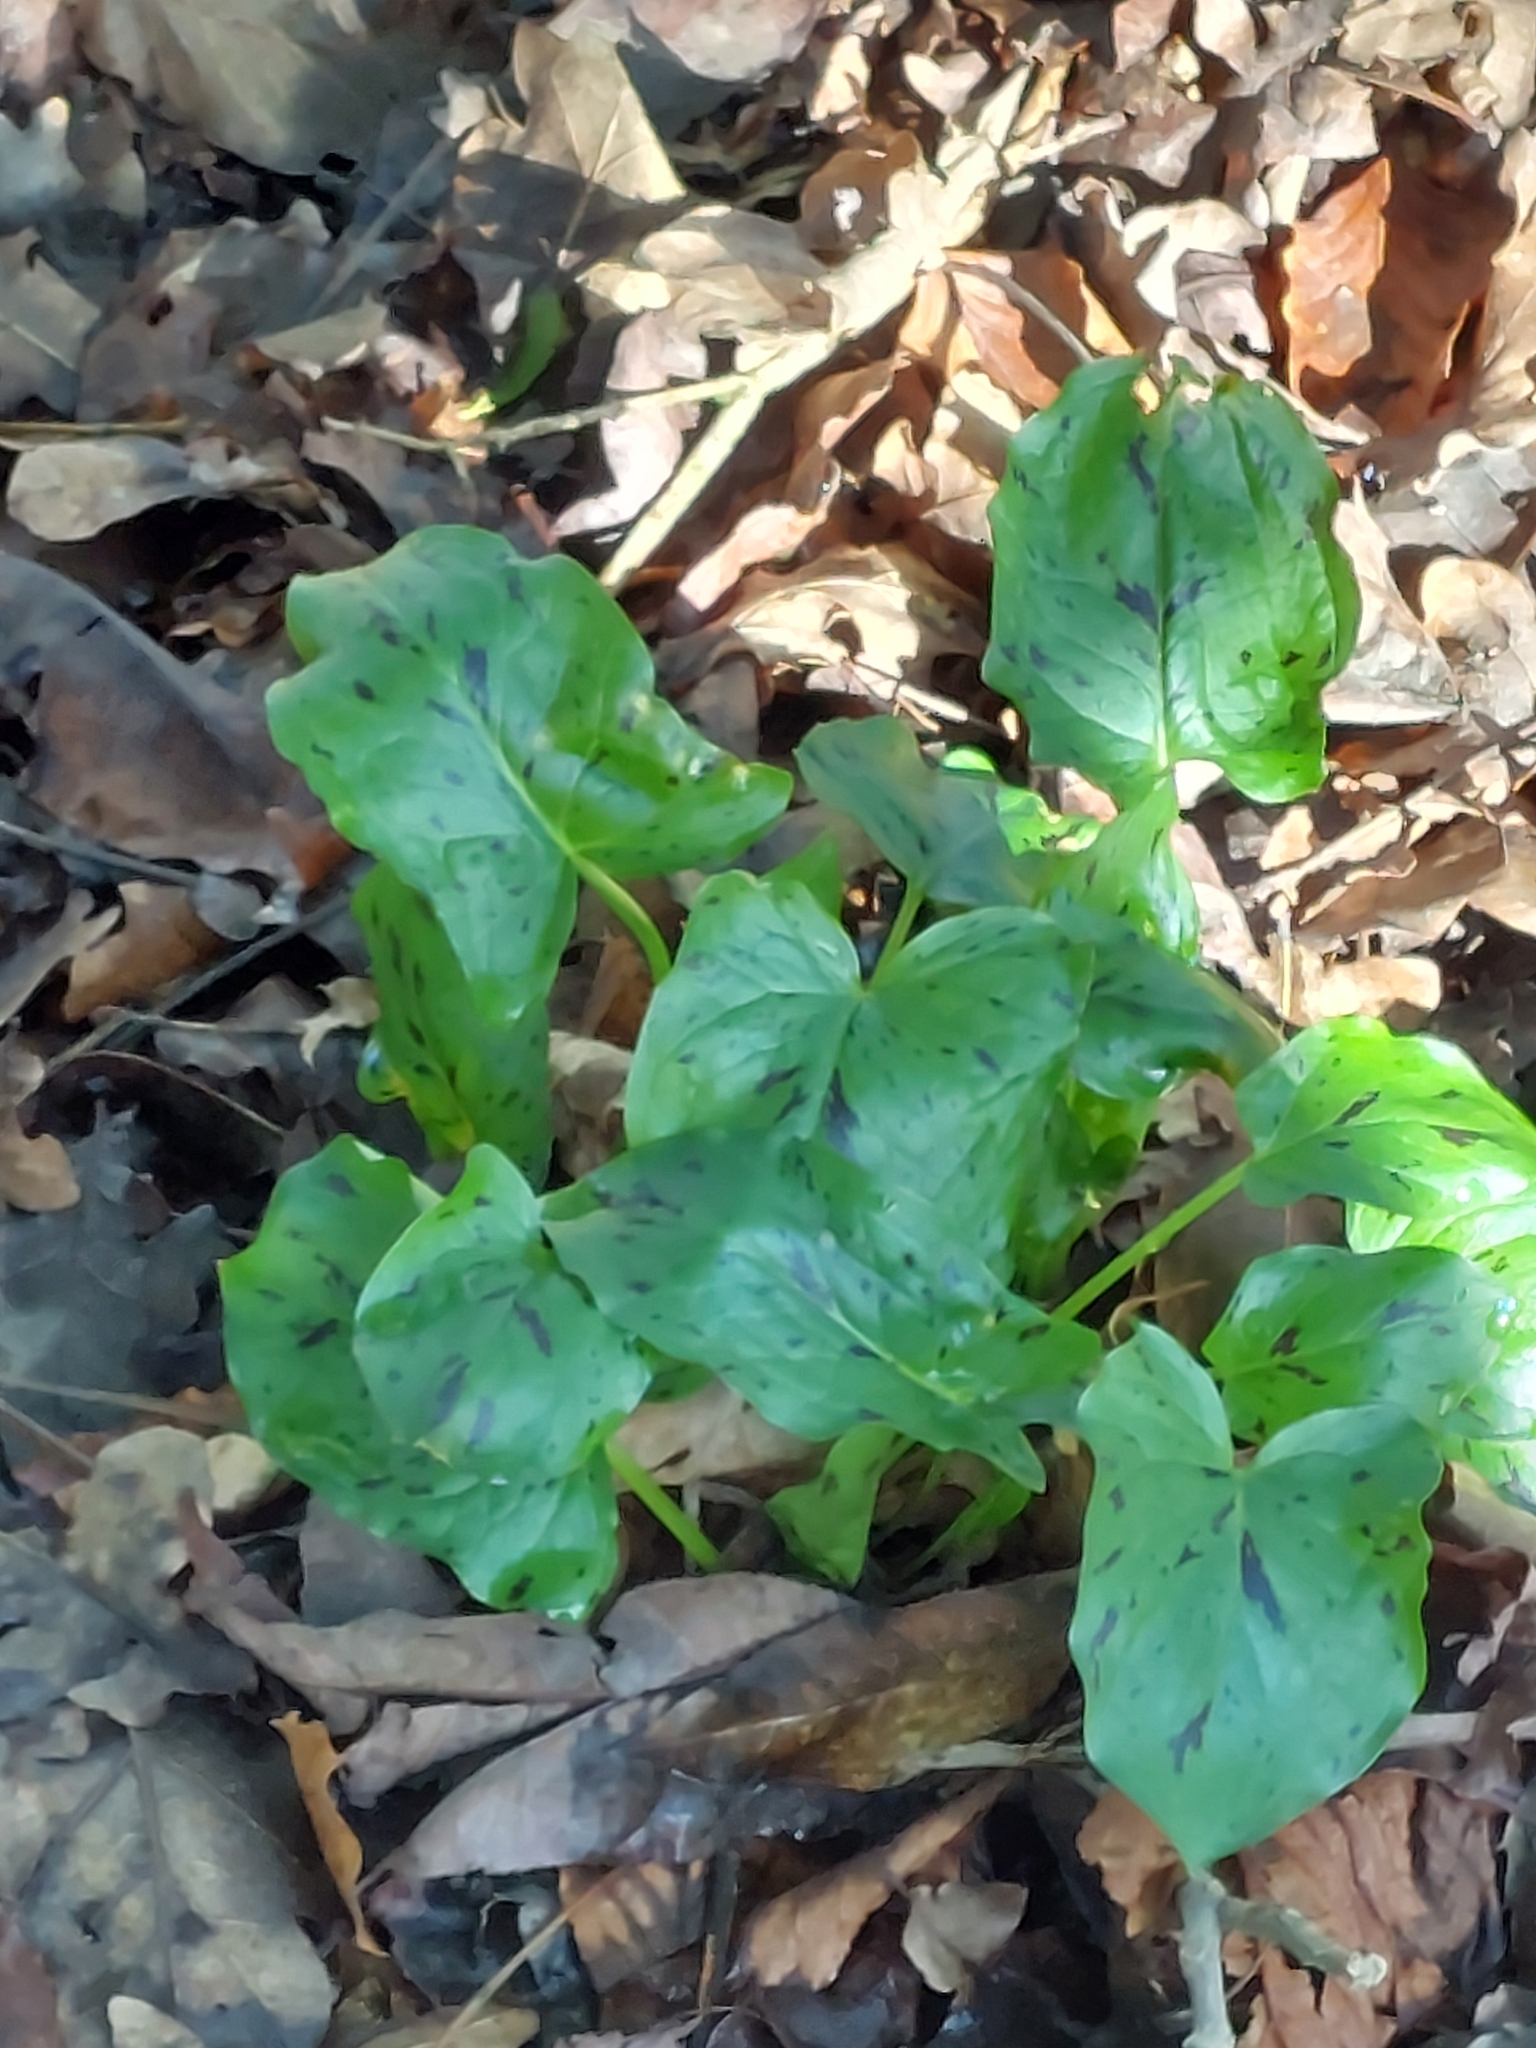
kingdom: Plantae
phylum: Tracheophyta
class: Liliopsida
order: Alismatales
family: Araceae
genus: Arum
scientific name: Arum maculatum
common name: Lords-and-ladies
